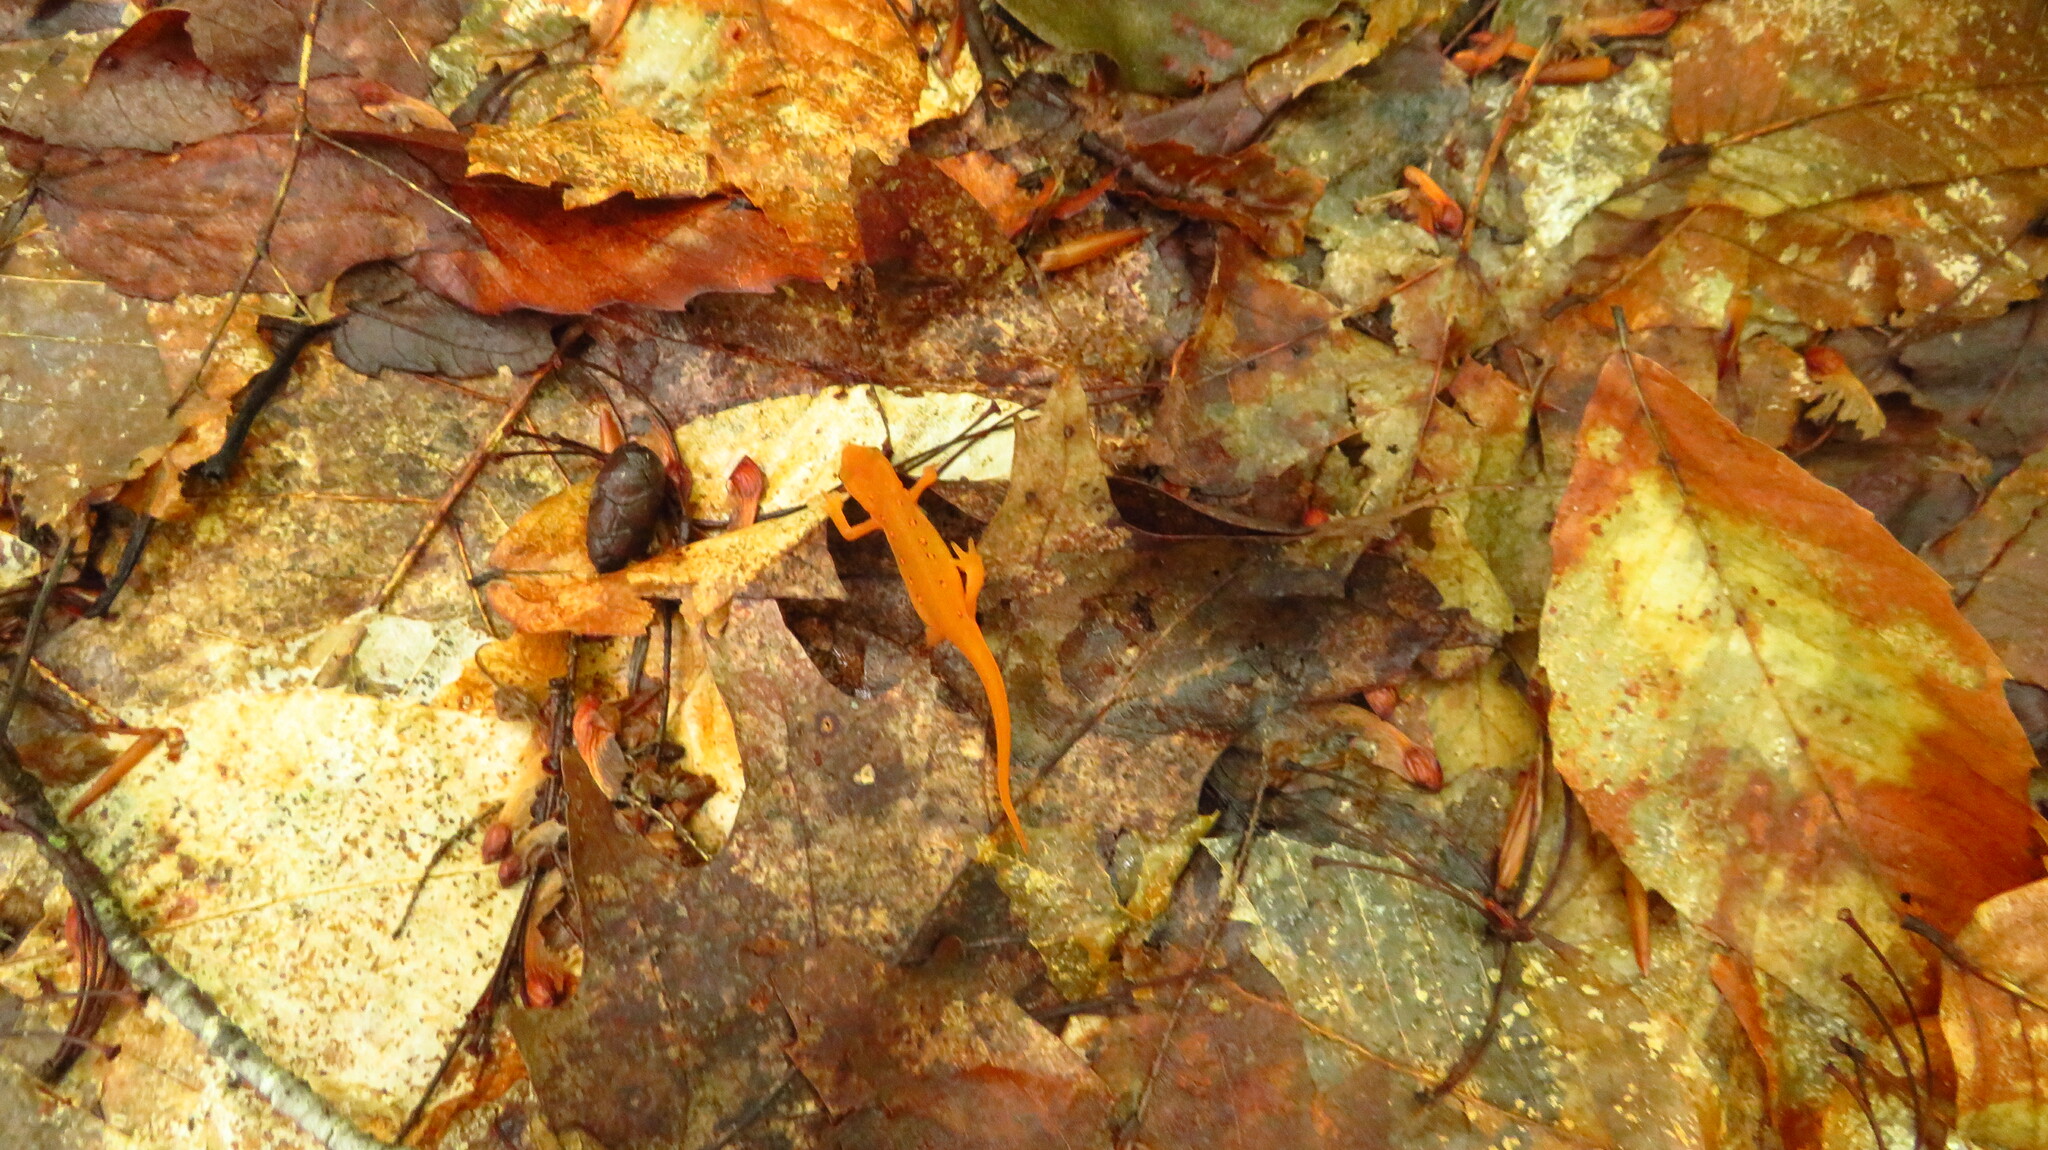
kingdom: Animalia
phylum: Chordata
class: Amphibia
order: Caudata
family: Salamandridae
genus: Notophthalmus
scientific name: Notophthalmus viridescens
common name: Eastern newt
